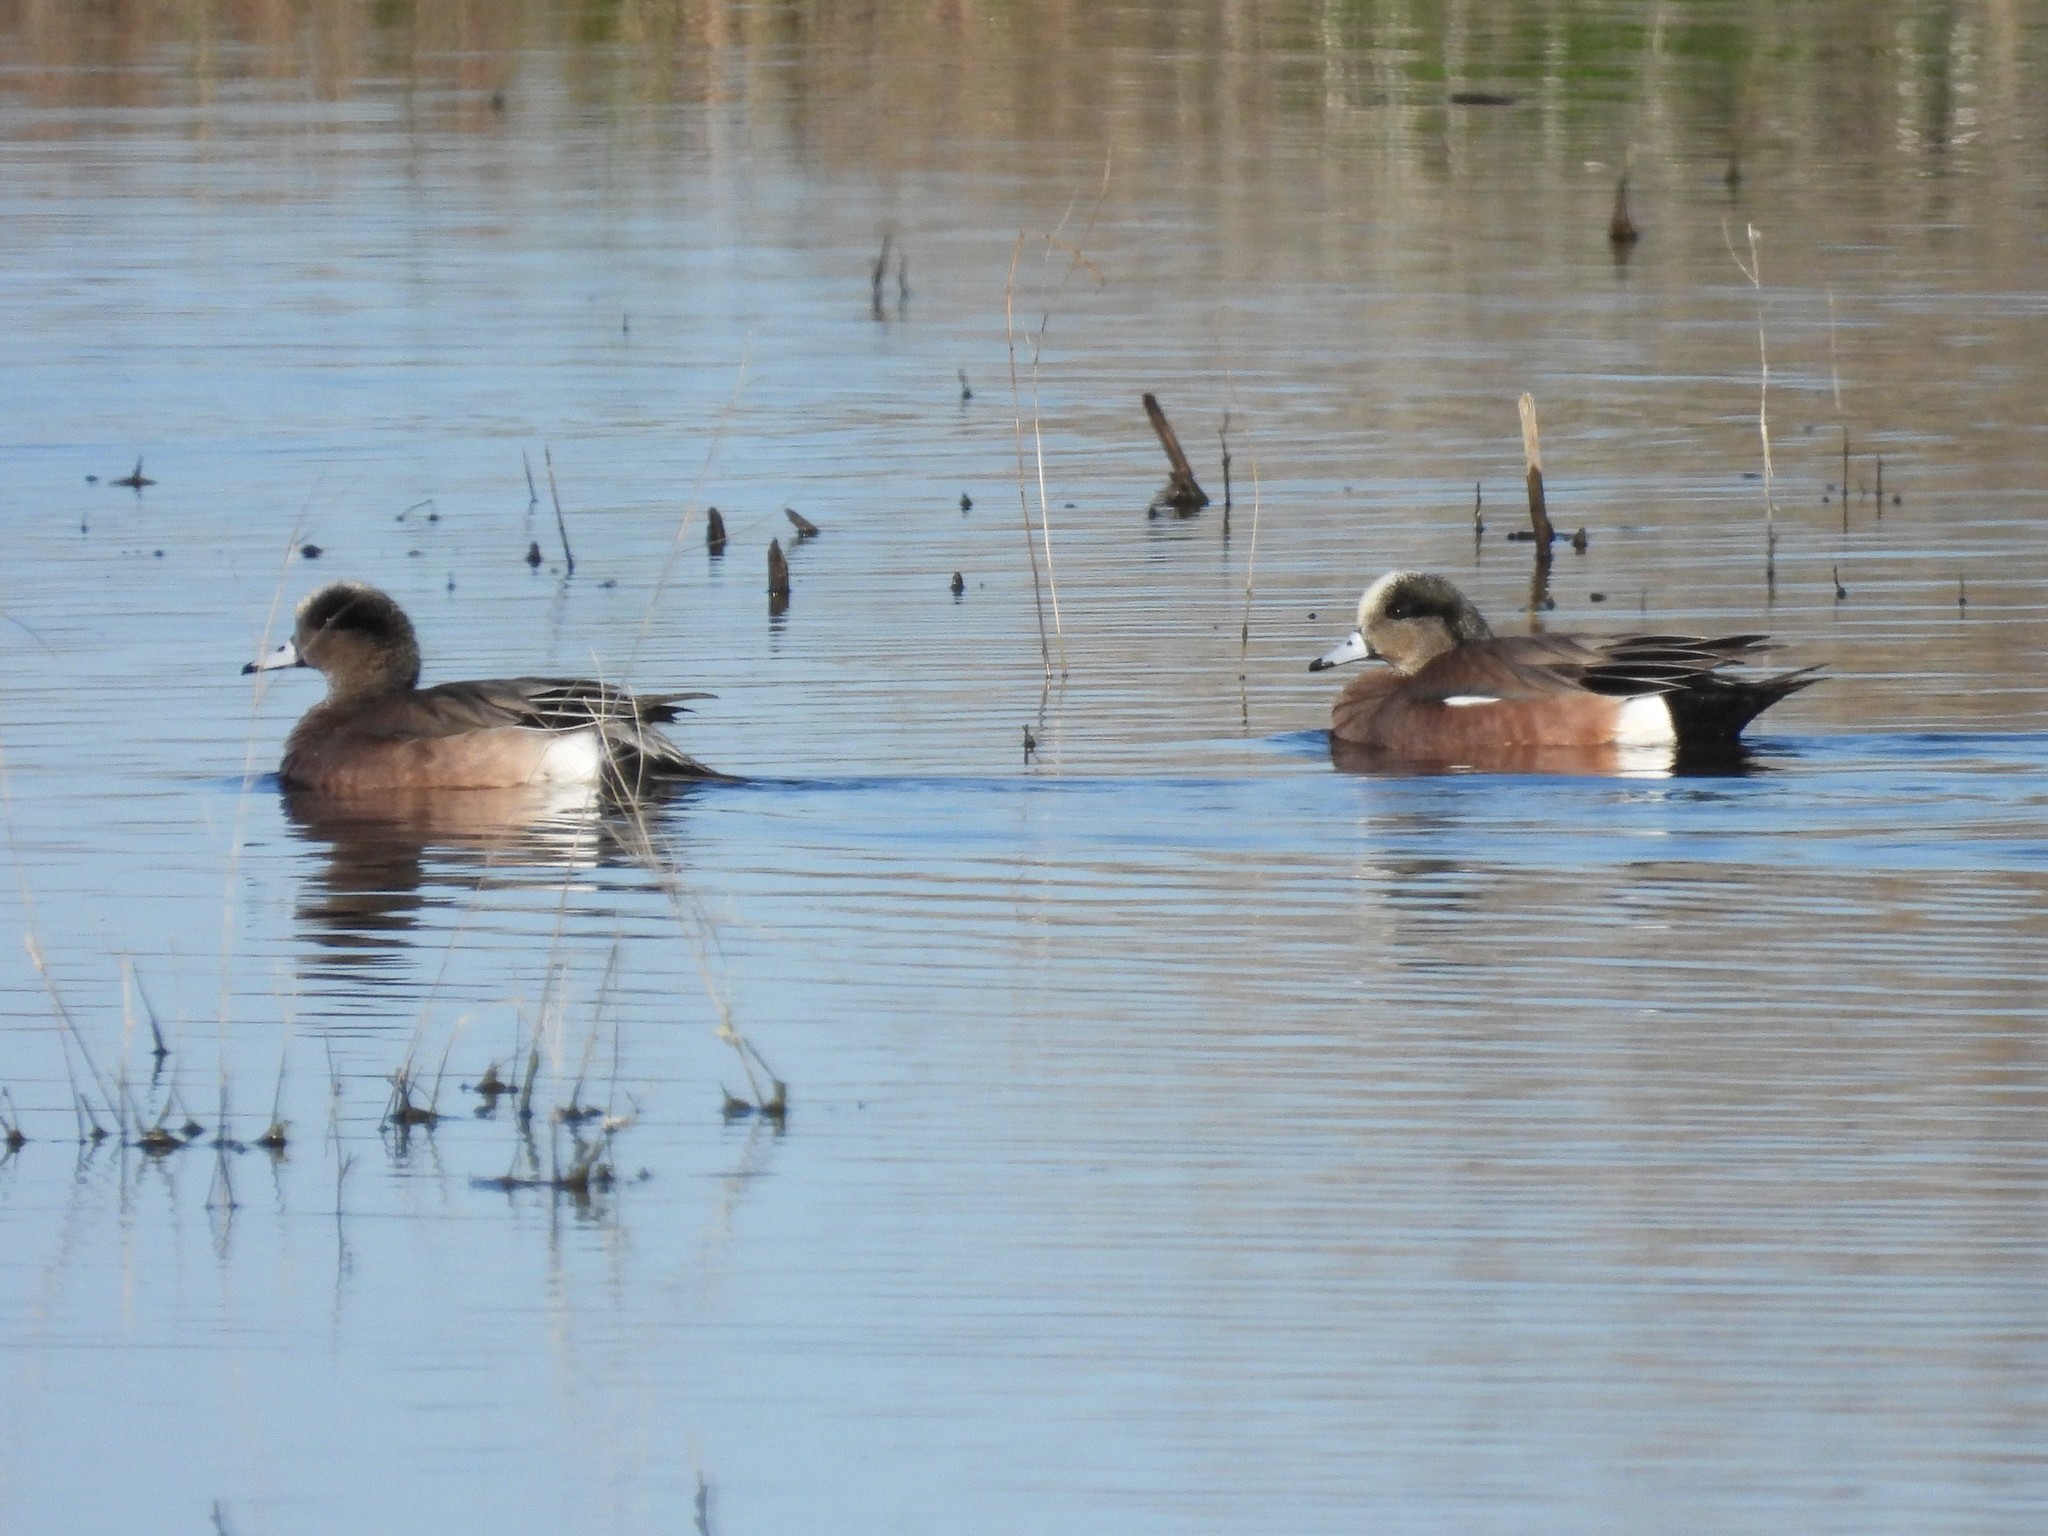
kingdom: Animalia
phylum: Chordata
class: Aves
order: Anseriformes
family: Anatidae
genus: Mareca
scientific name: Mareca americana
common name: American wigeon
